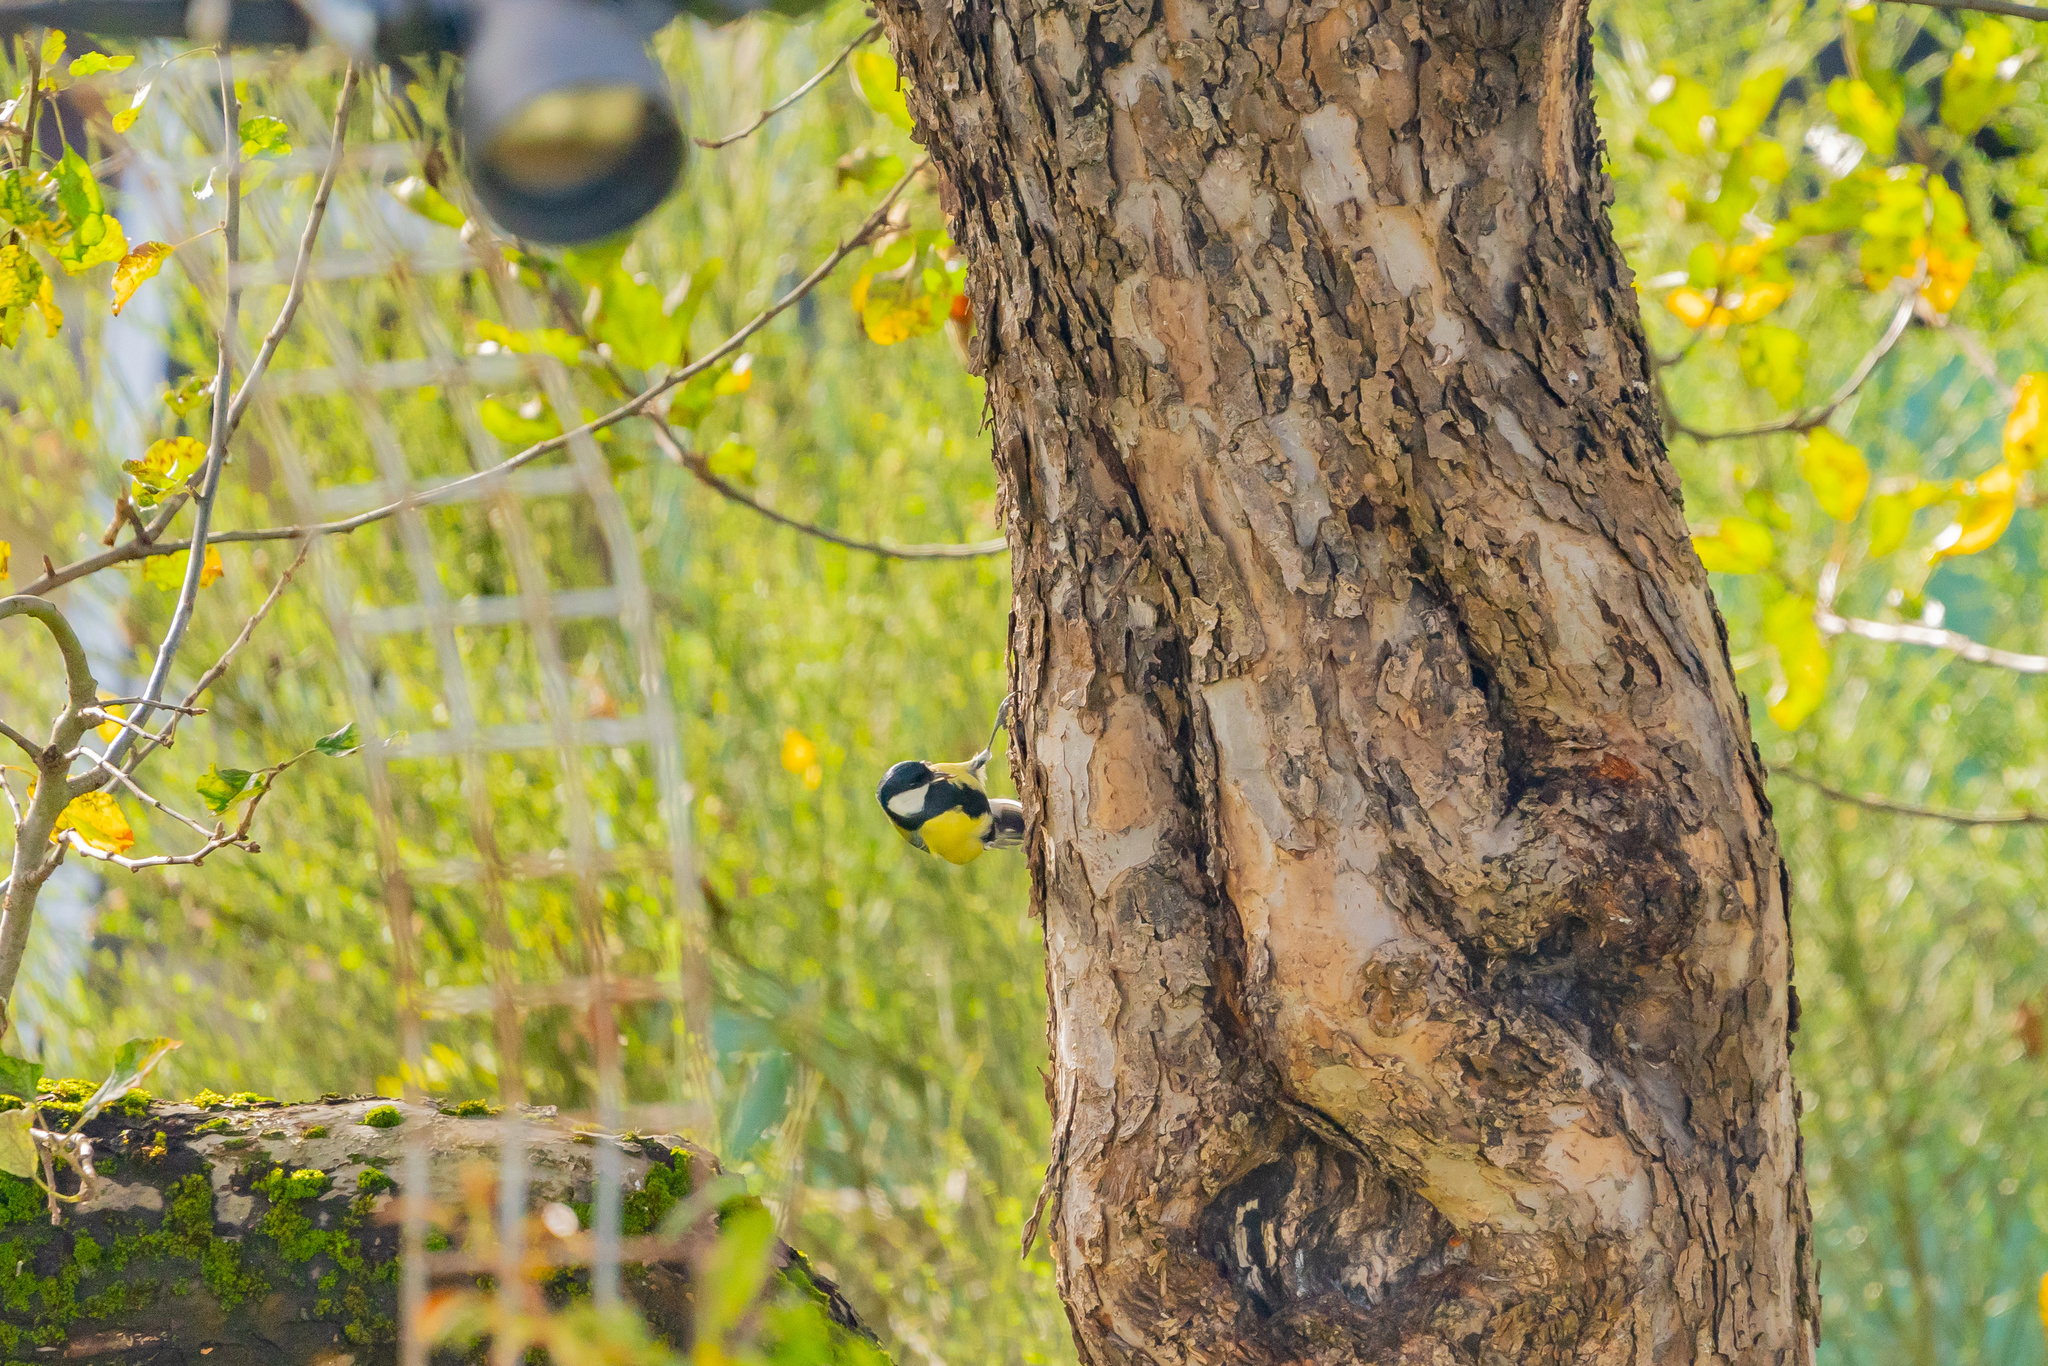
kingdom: Animalia
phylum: Chordata
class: Aves
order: Passeriformes
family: Paridae
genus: Parus
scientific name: Parus major
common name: Great tit
